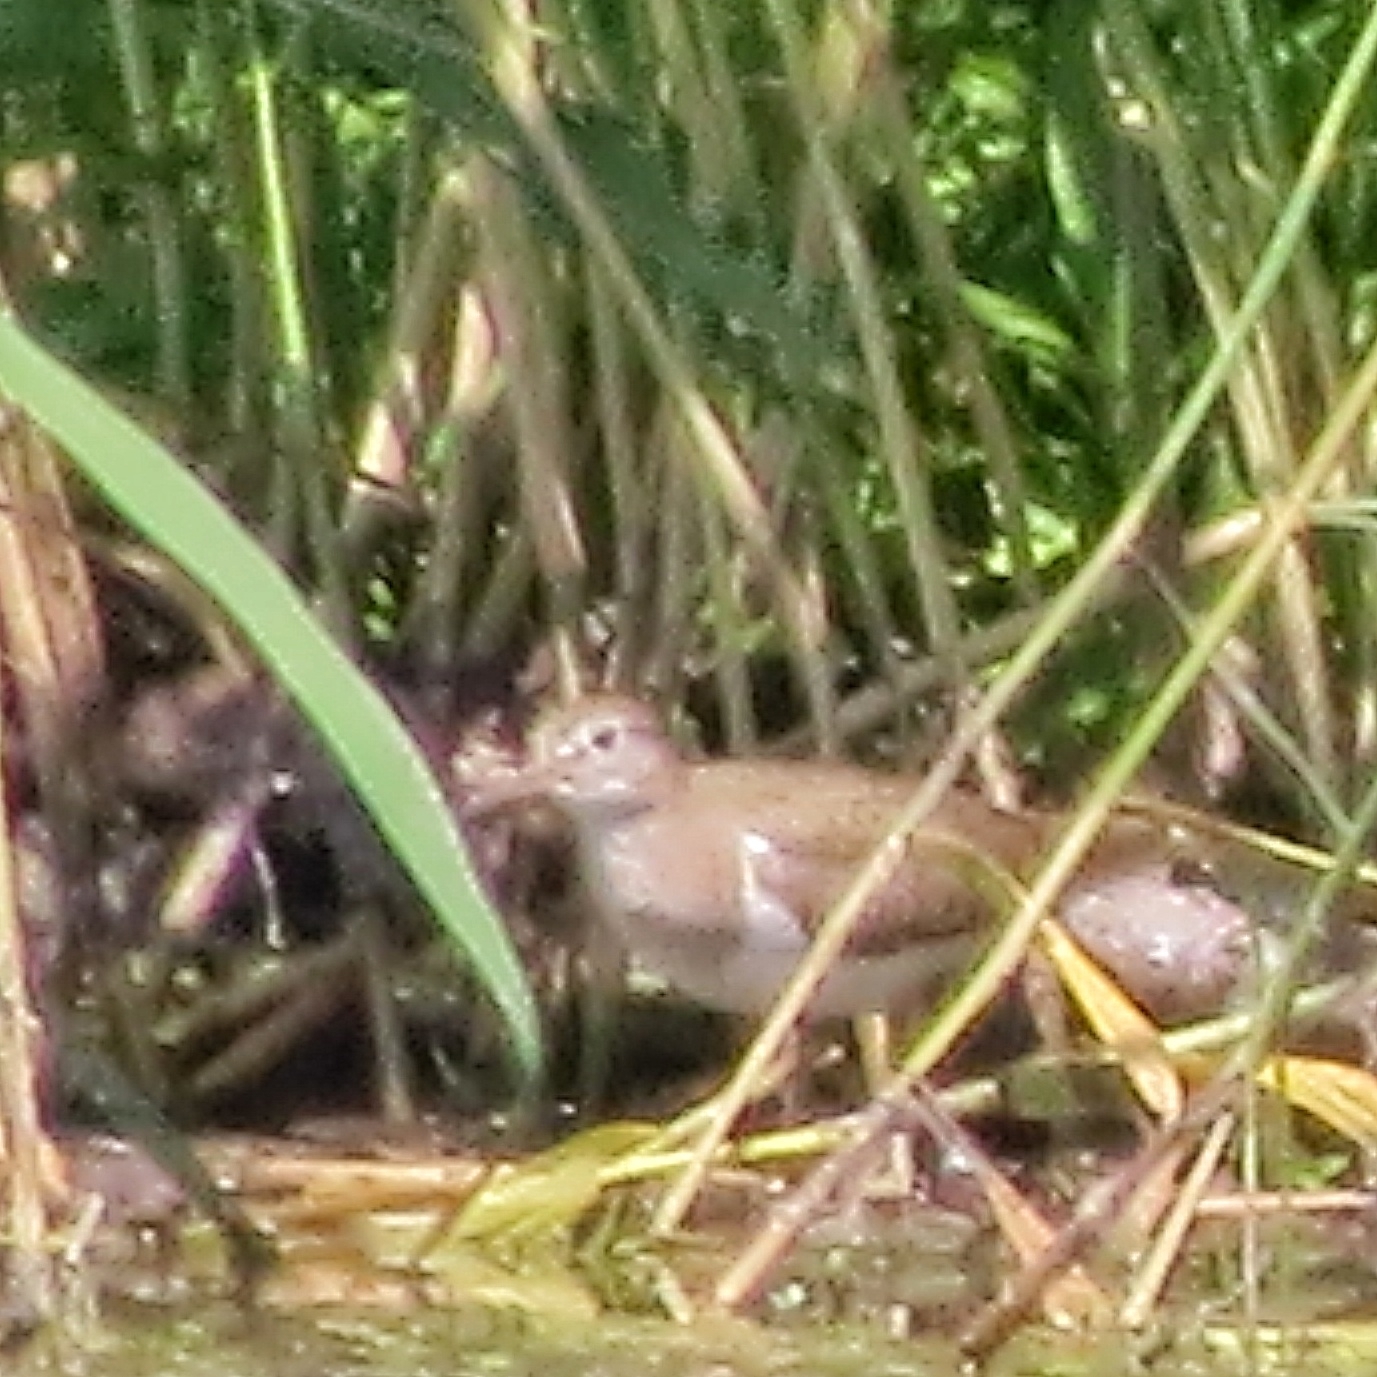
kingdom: Animalia
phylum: Chordata
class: Aves
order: Charadriiformes
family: Scolopacidae
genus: Actitis
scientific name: Actitis hypoleucos
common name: Common sandpiper
